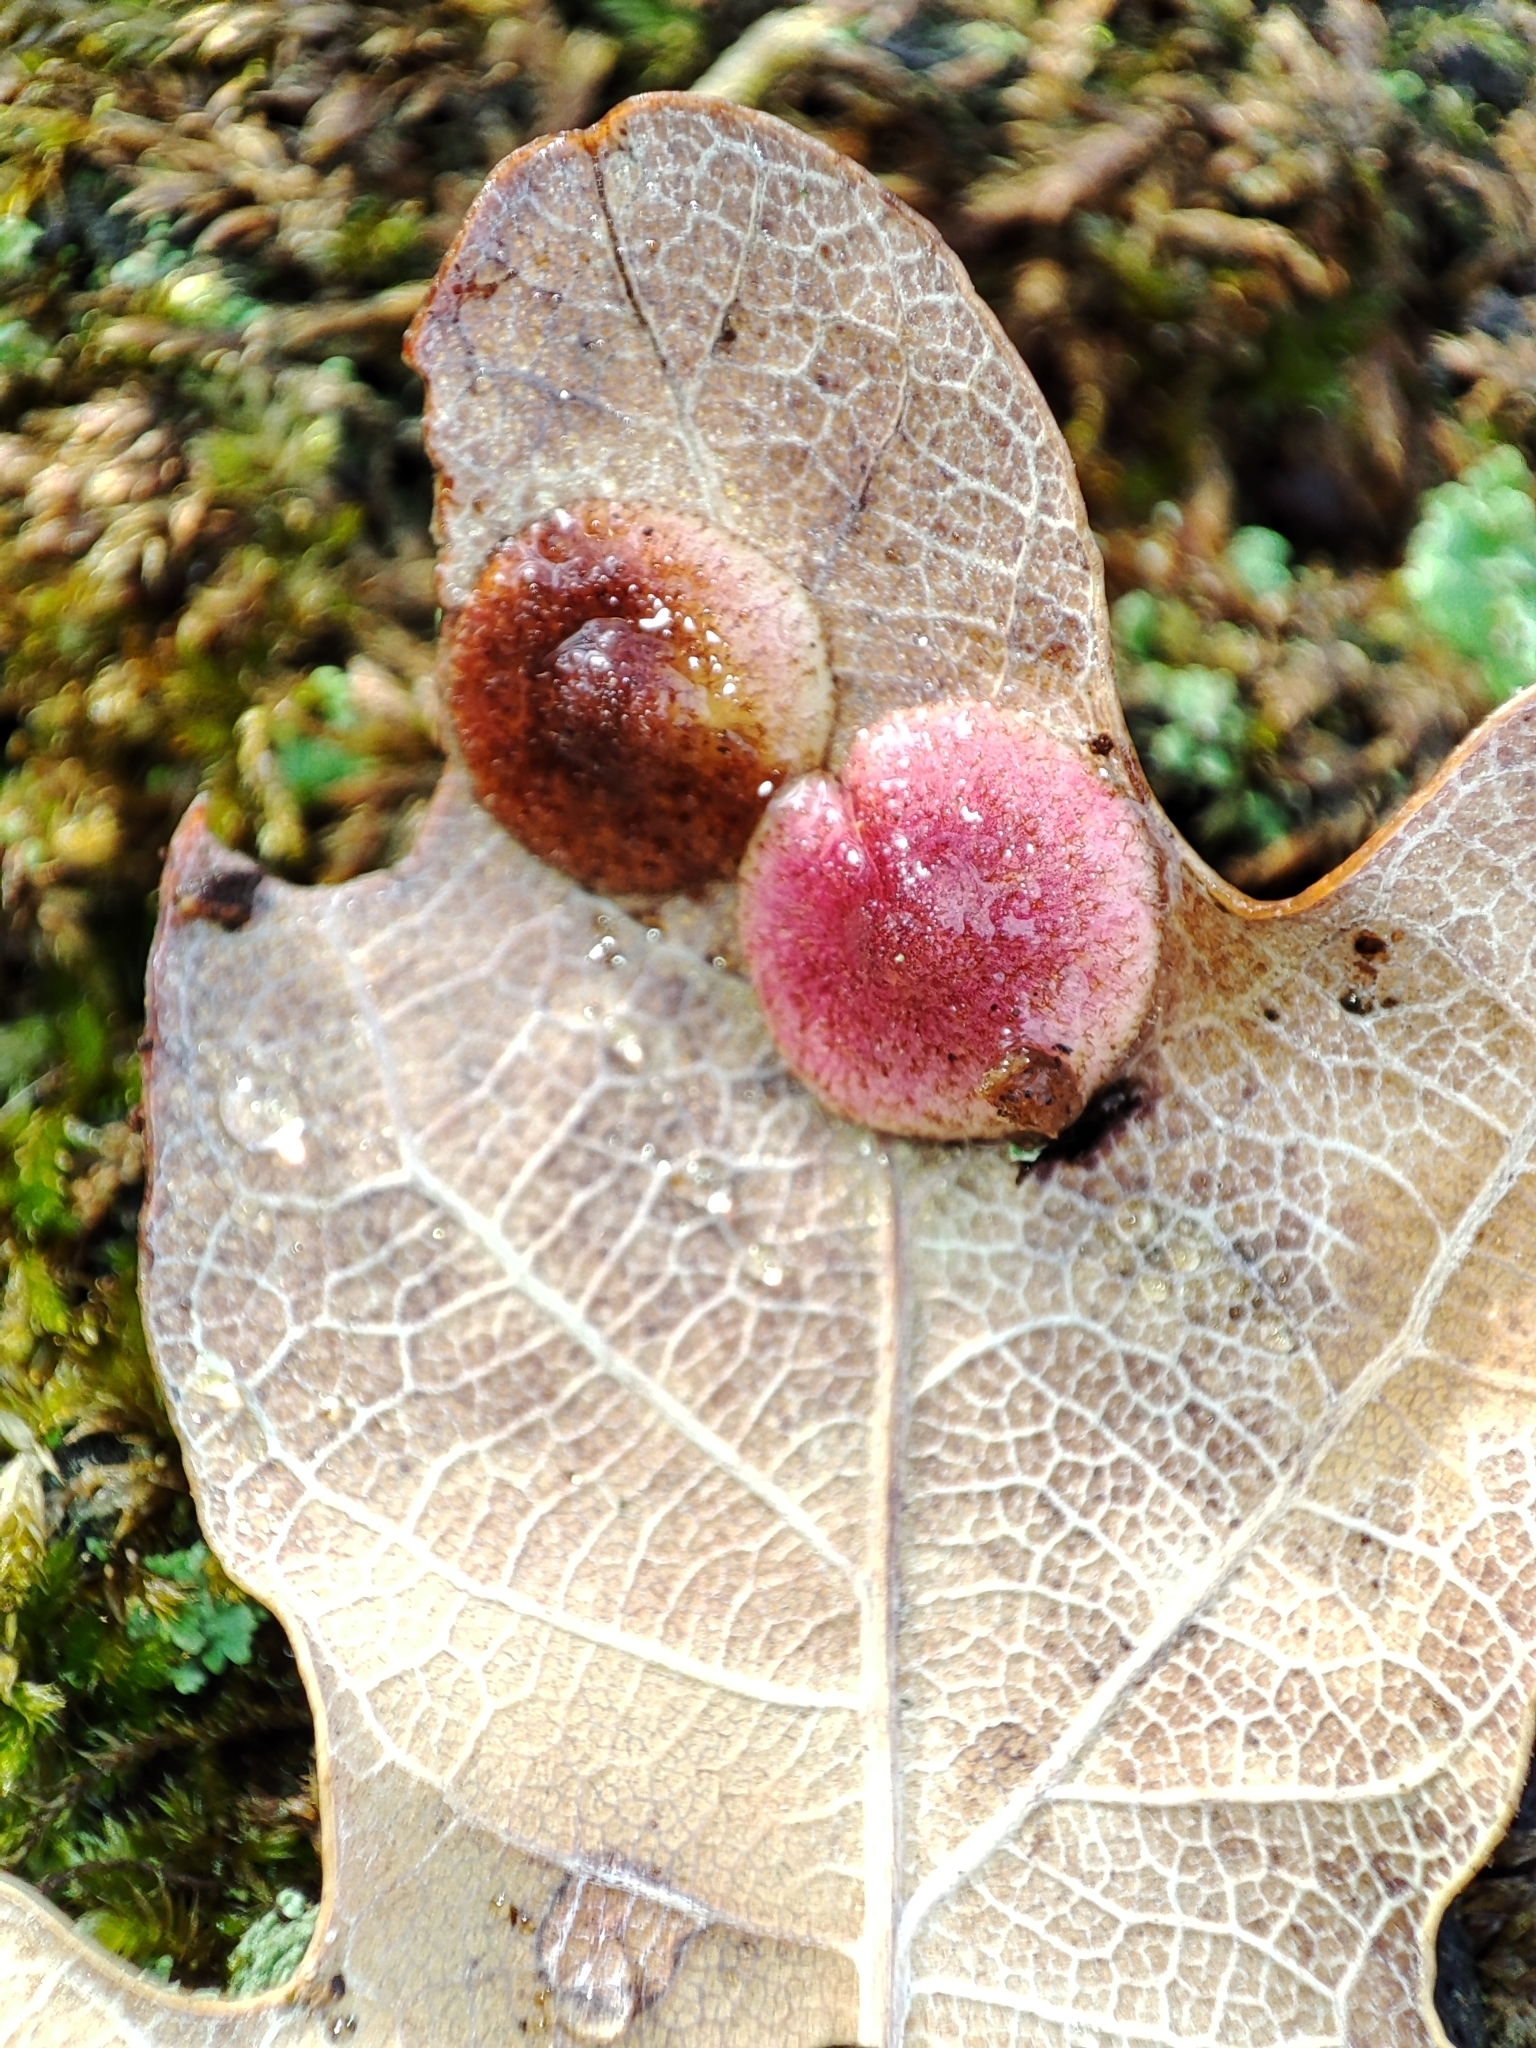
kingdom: Animalia
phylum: Arthropoda
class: Insecta
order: Hymenoptera
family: Cynipidae
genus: Neuroterus
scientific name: Neuroterus quercusbaccarum
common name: Common spangle gall
